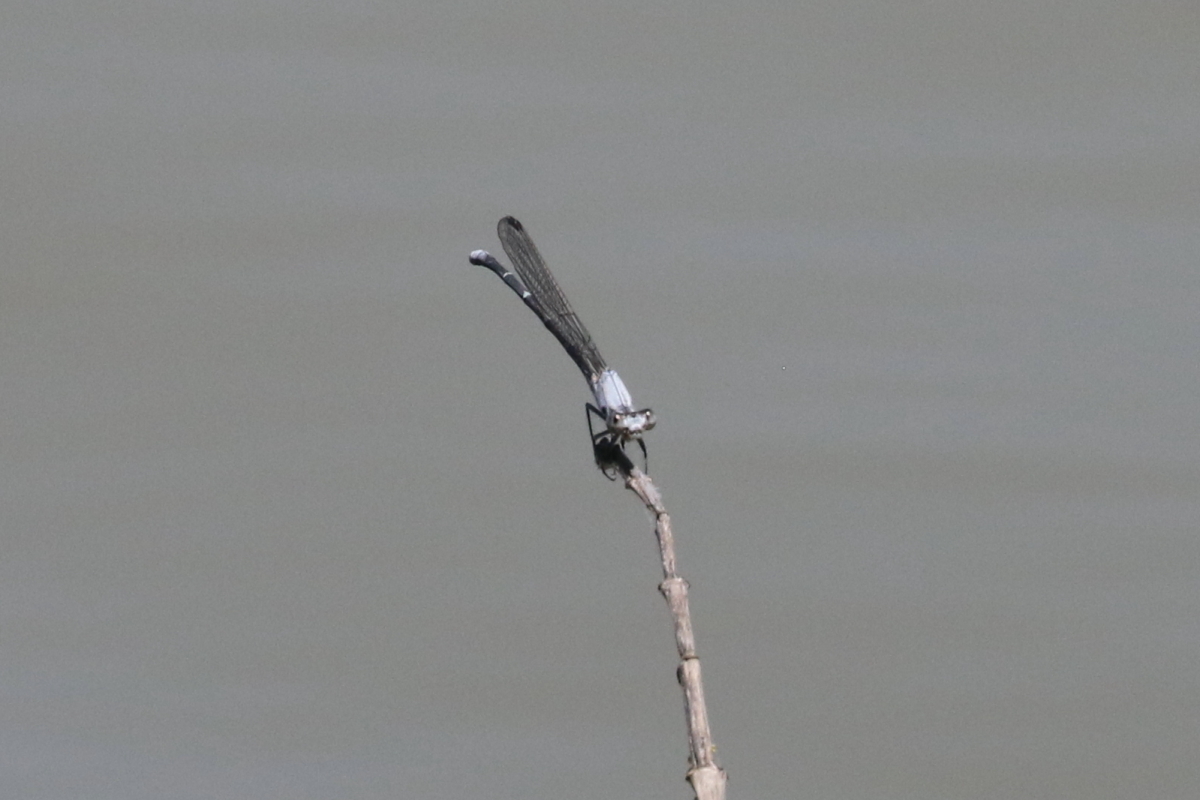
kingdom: Animalia
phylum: Arthropoda
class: Insecta
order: Odonata
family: Coenagrionidae
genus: Argia
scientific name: Argia moesta
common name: Powdered dancer
